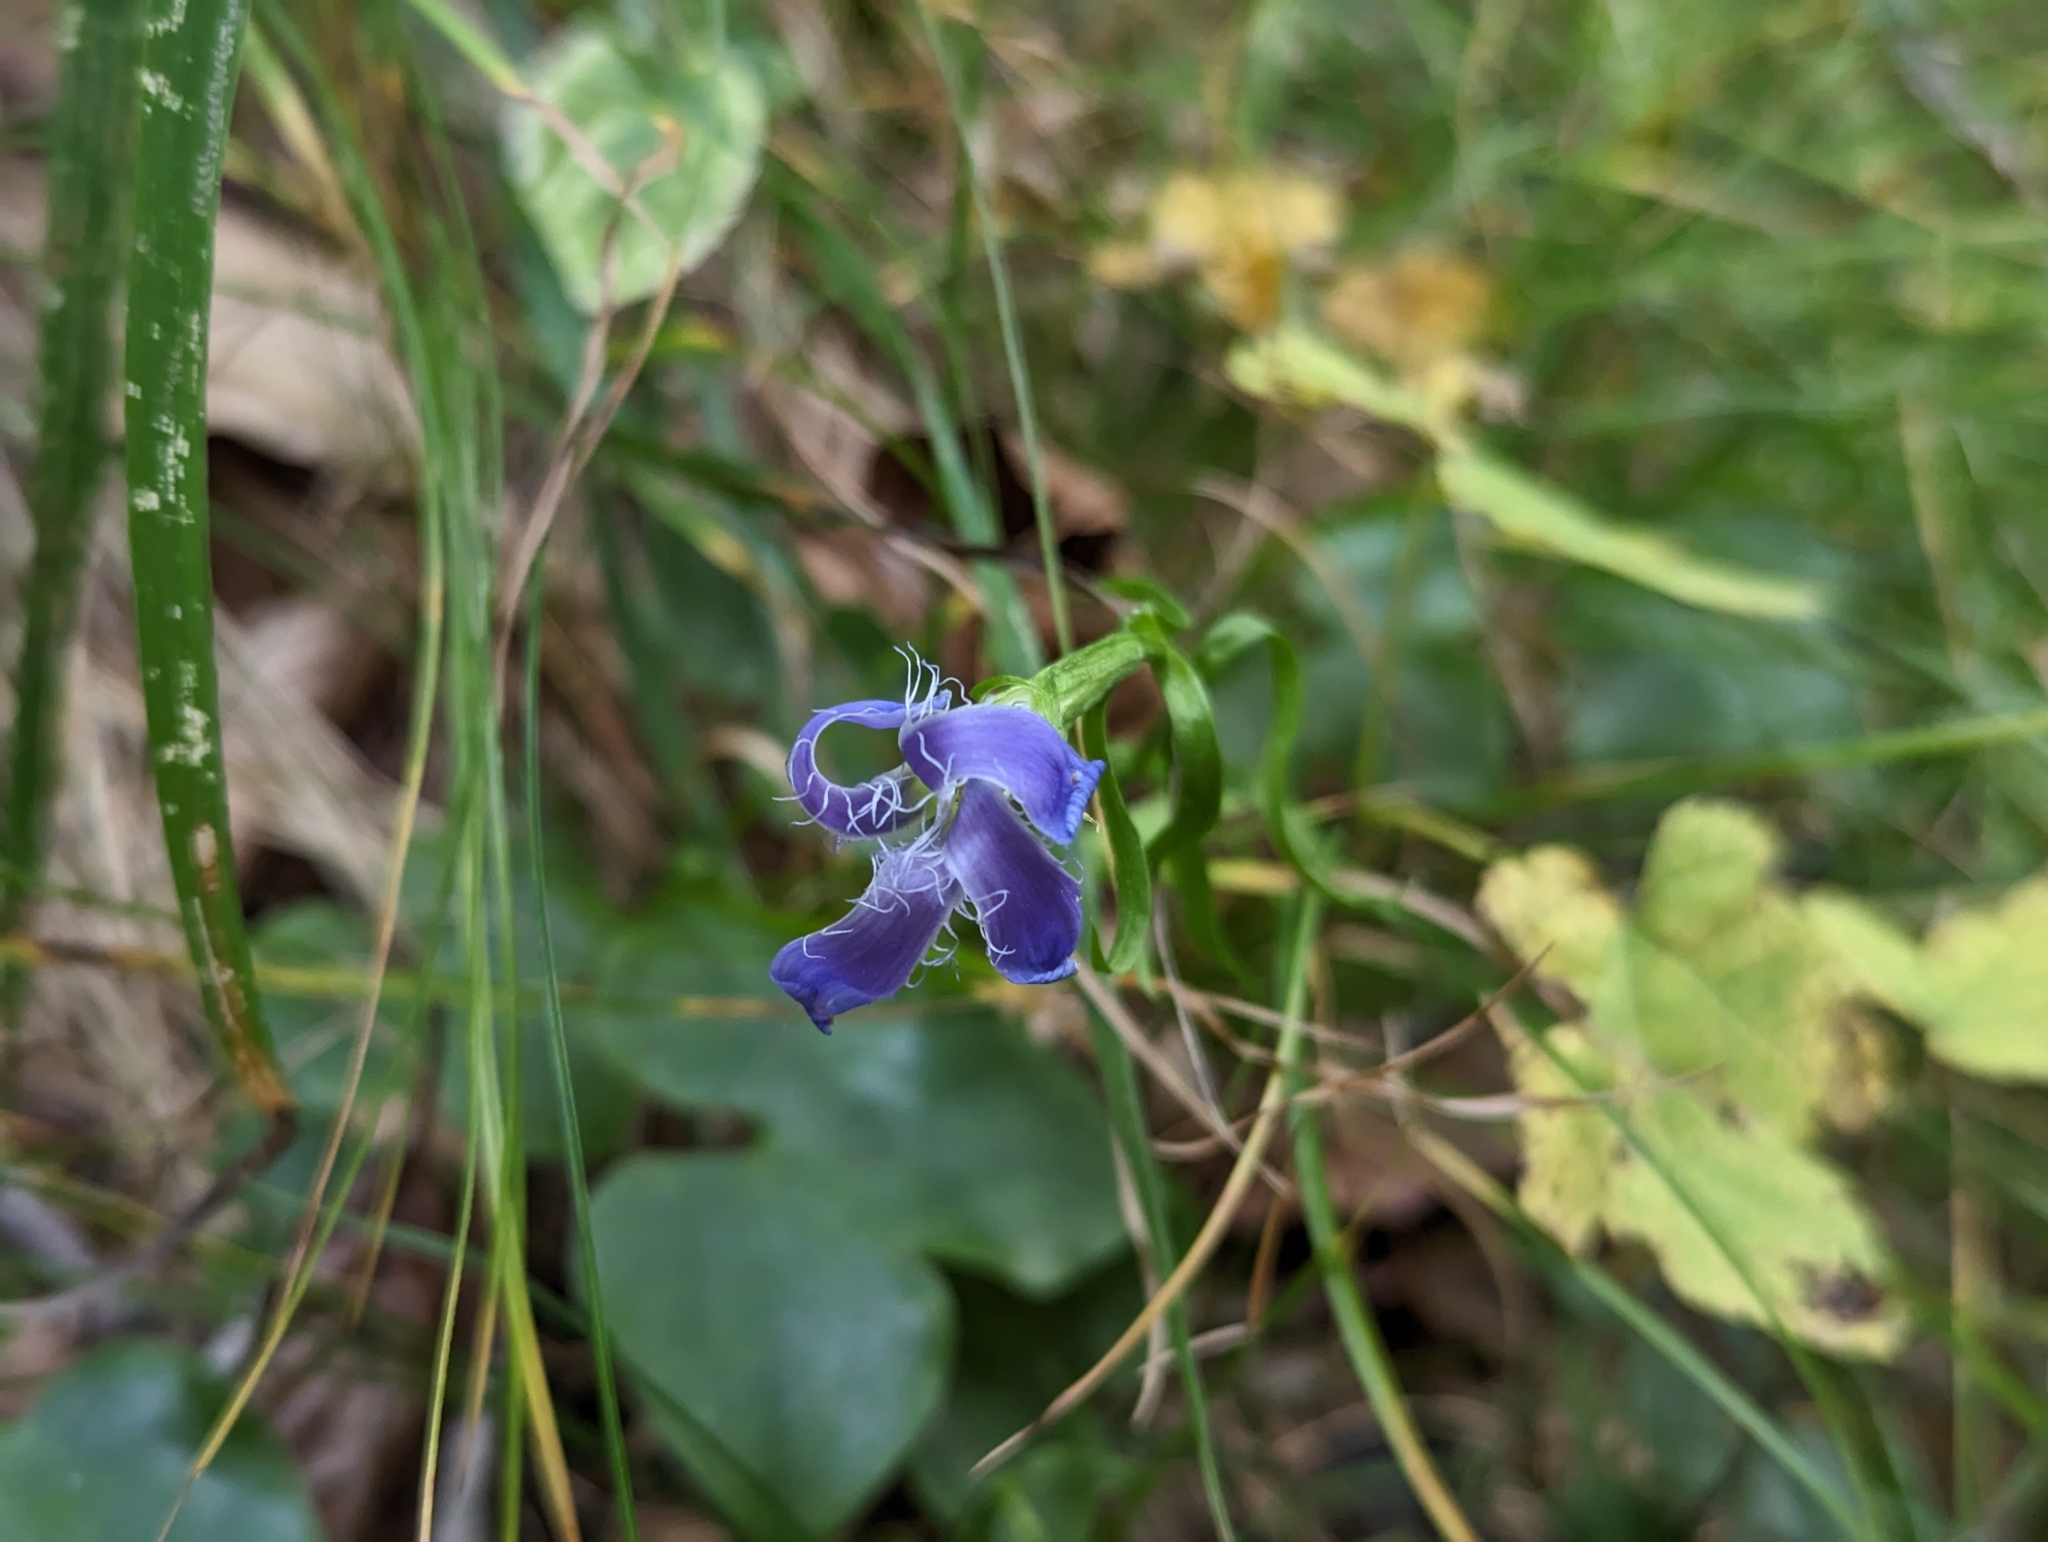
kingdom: Plantae
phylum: Tracheophyta
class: Magnoliopsida
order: Gentianales
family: Gentianaceae
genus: Gentianopsis
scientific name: Gentianopsis ciliata
